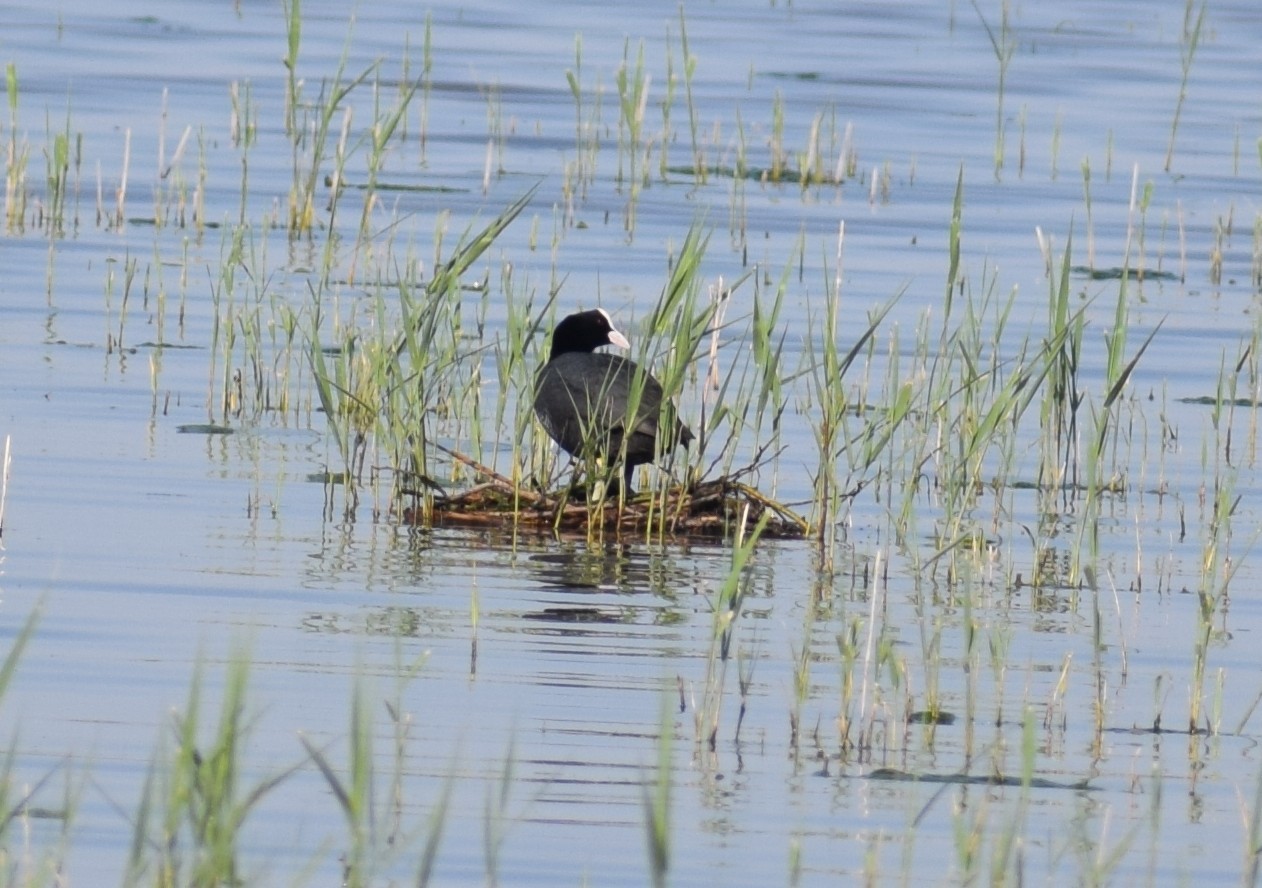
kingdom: Animalia
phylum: Chordata
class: Aves
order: Gruiformes
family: Rallidae
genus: Fulica
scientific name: Fulica atra
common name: Eurasian coot
